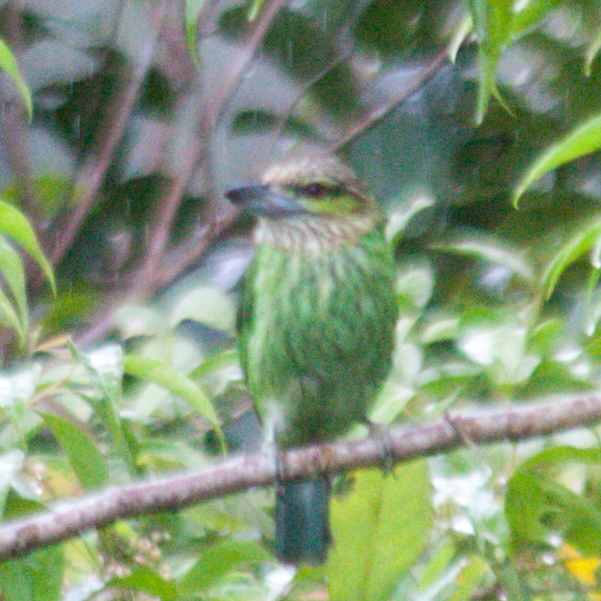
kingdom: Animalia
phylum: Chordata
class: Aves
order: Piciformes
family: Megalaimidae
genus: Psilopogon
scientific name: Psilopogon faiostrictus
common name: Green-eared barbet
